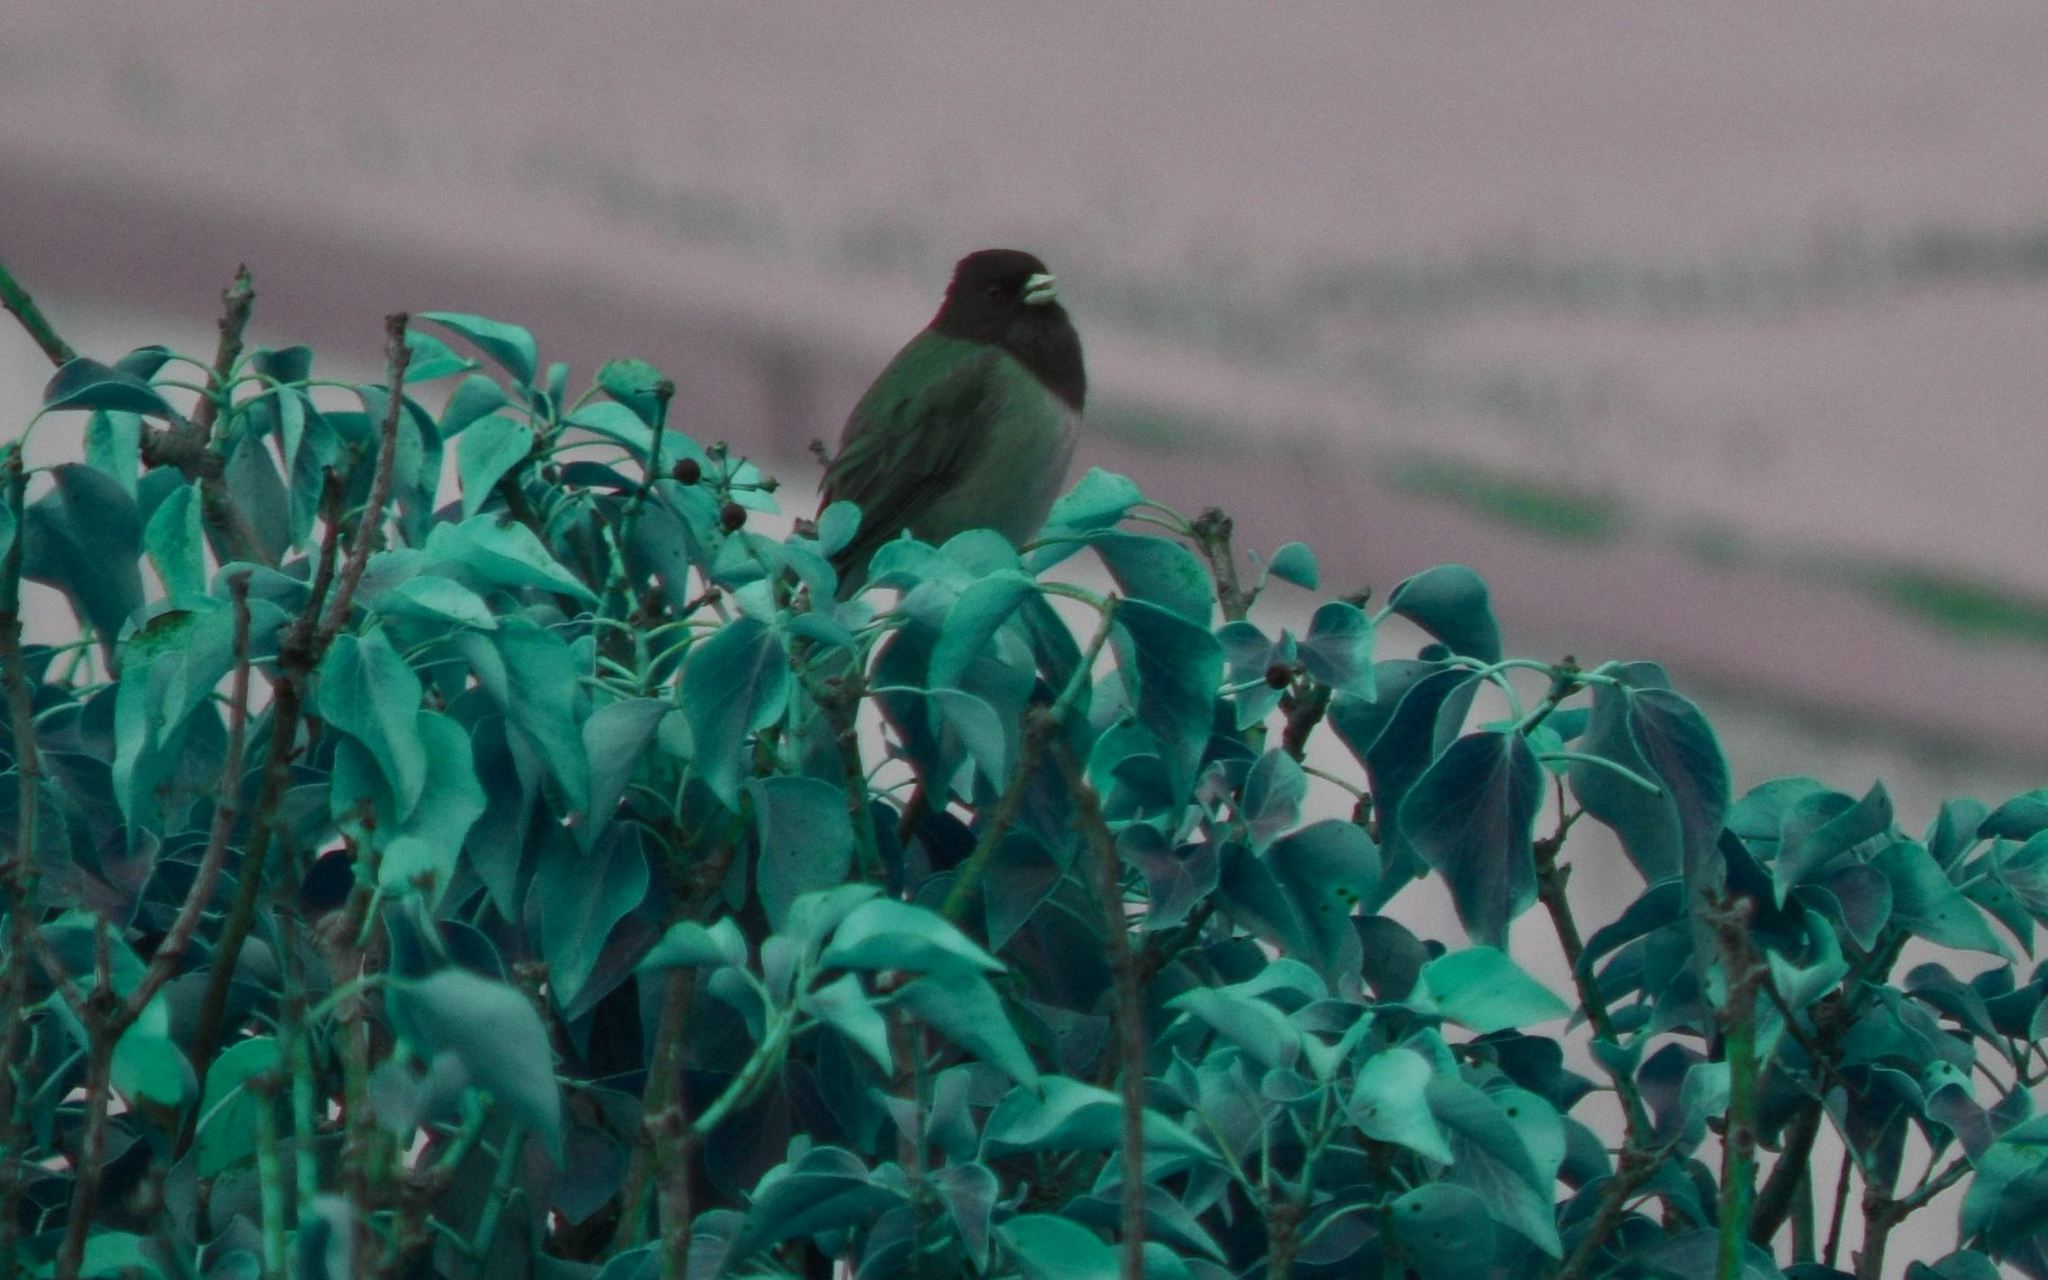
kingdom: Animalia
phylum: Chordata
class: Aves
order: Passeriformes
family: Passerellidae
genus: Junco
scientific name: Junco hyemalis
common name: Dark-eyed junco
